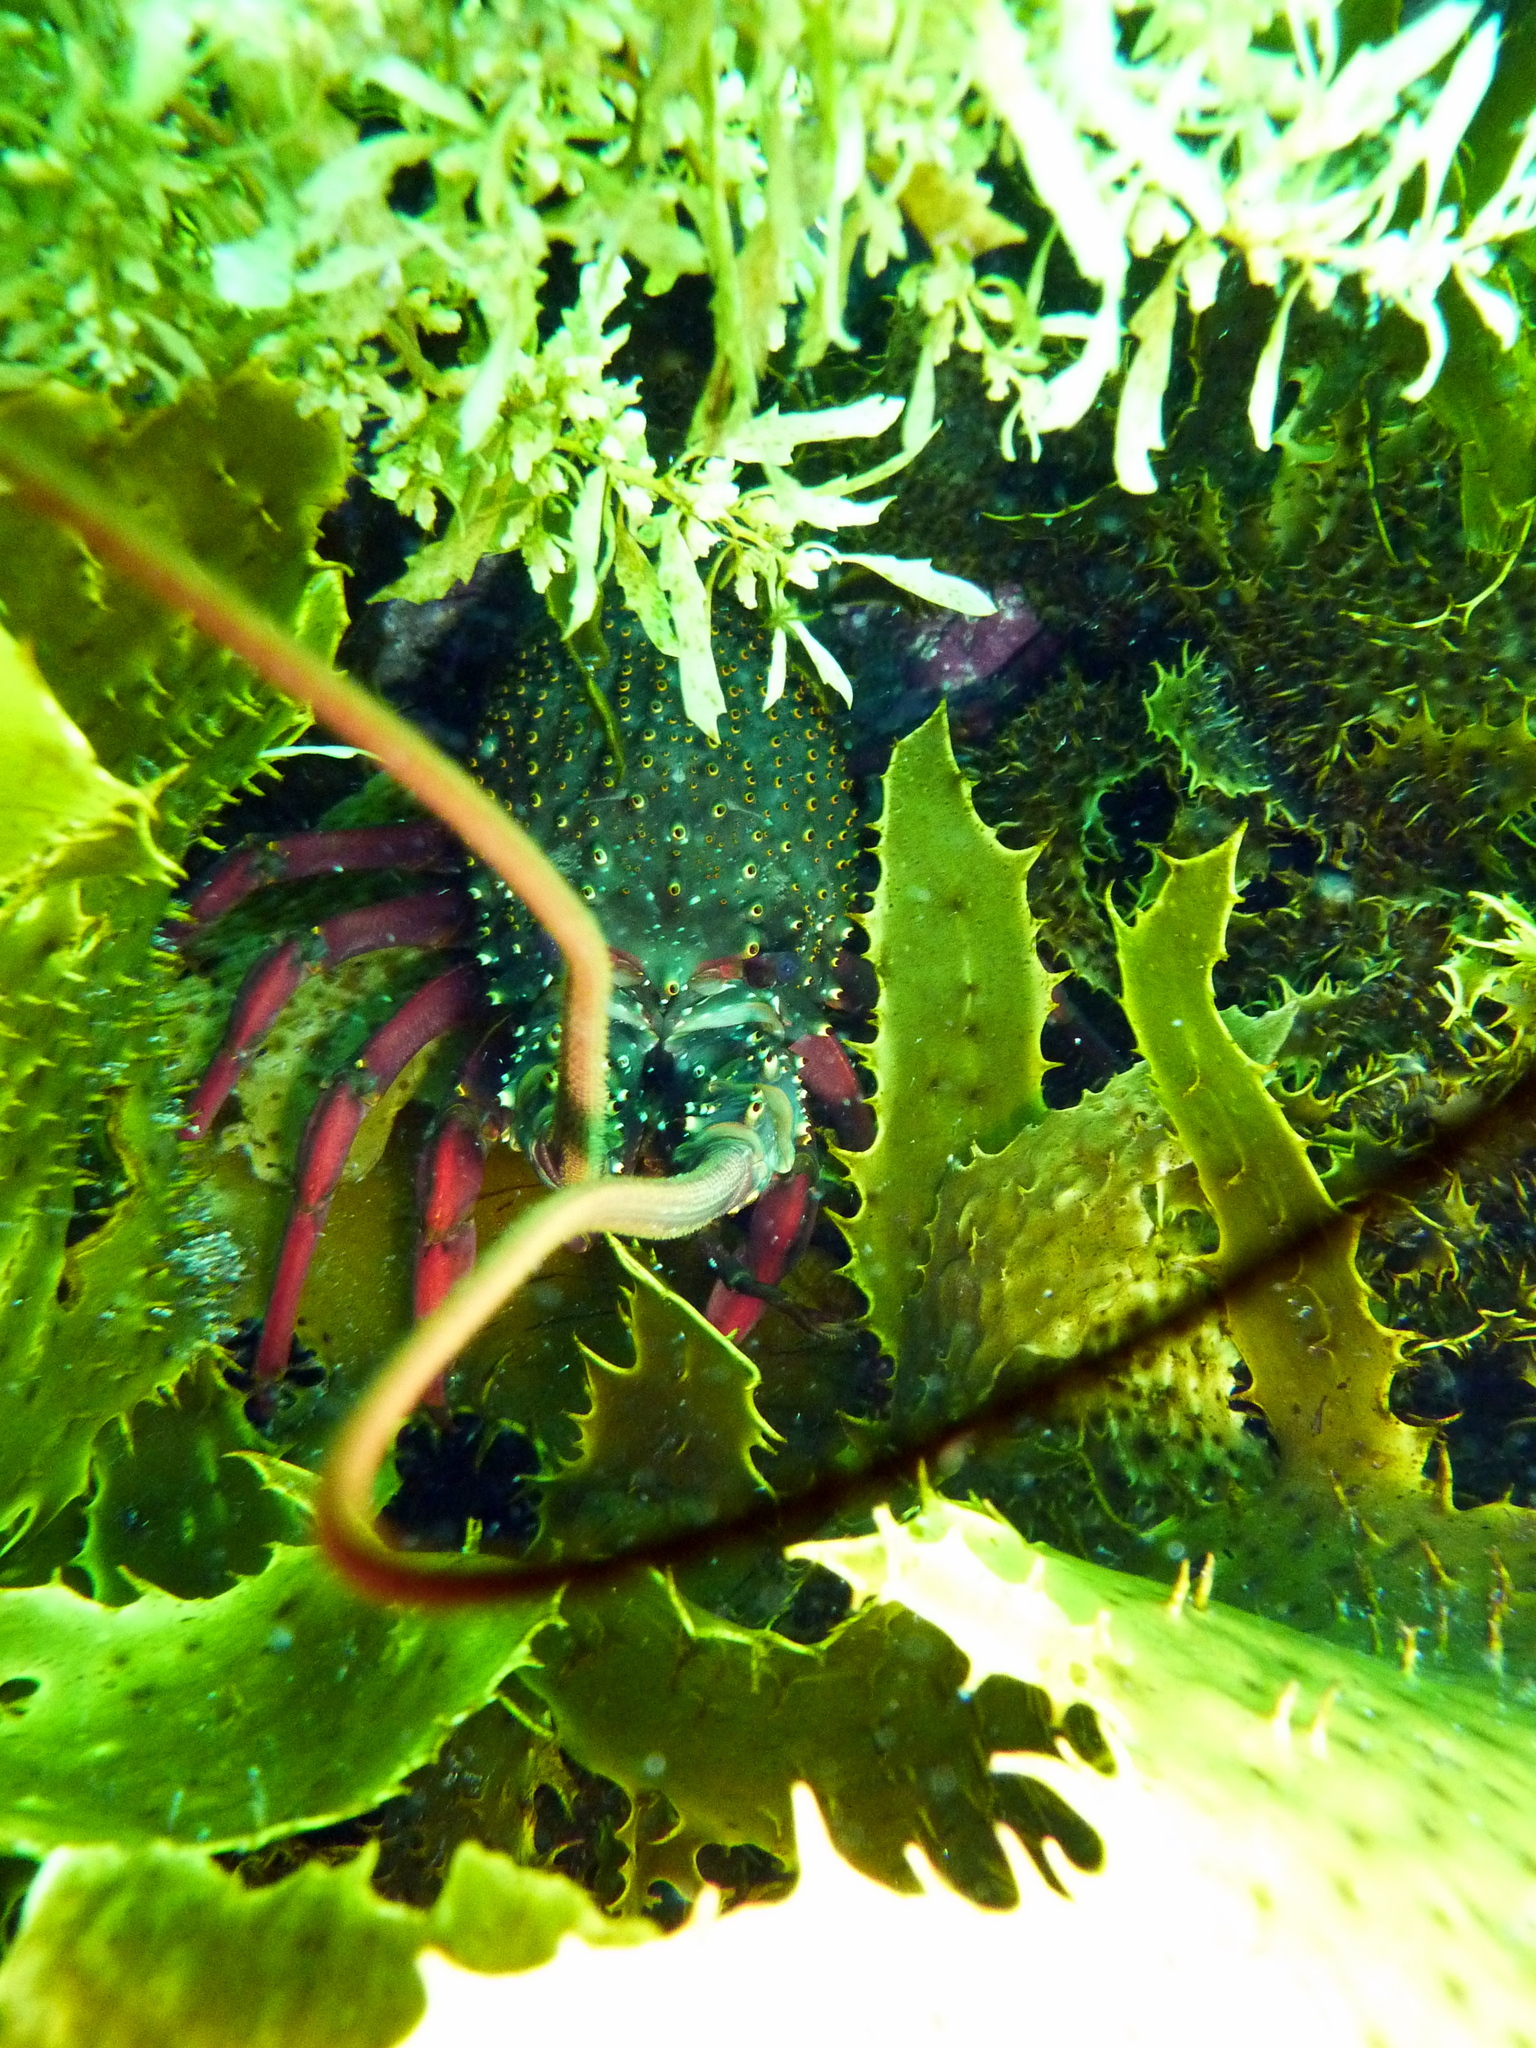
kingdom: Animalia
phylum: Arthropoda
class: Malacostraca
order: Decapoda
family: Palinuridae
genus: Sagmariasus
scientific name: Sagmariasus verreauxi
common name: Green rock lobster
